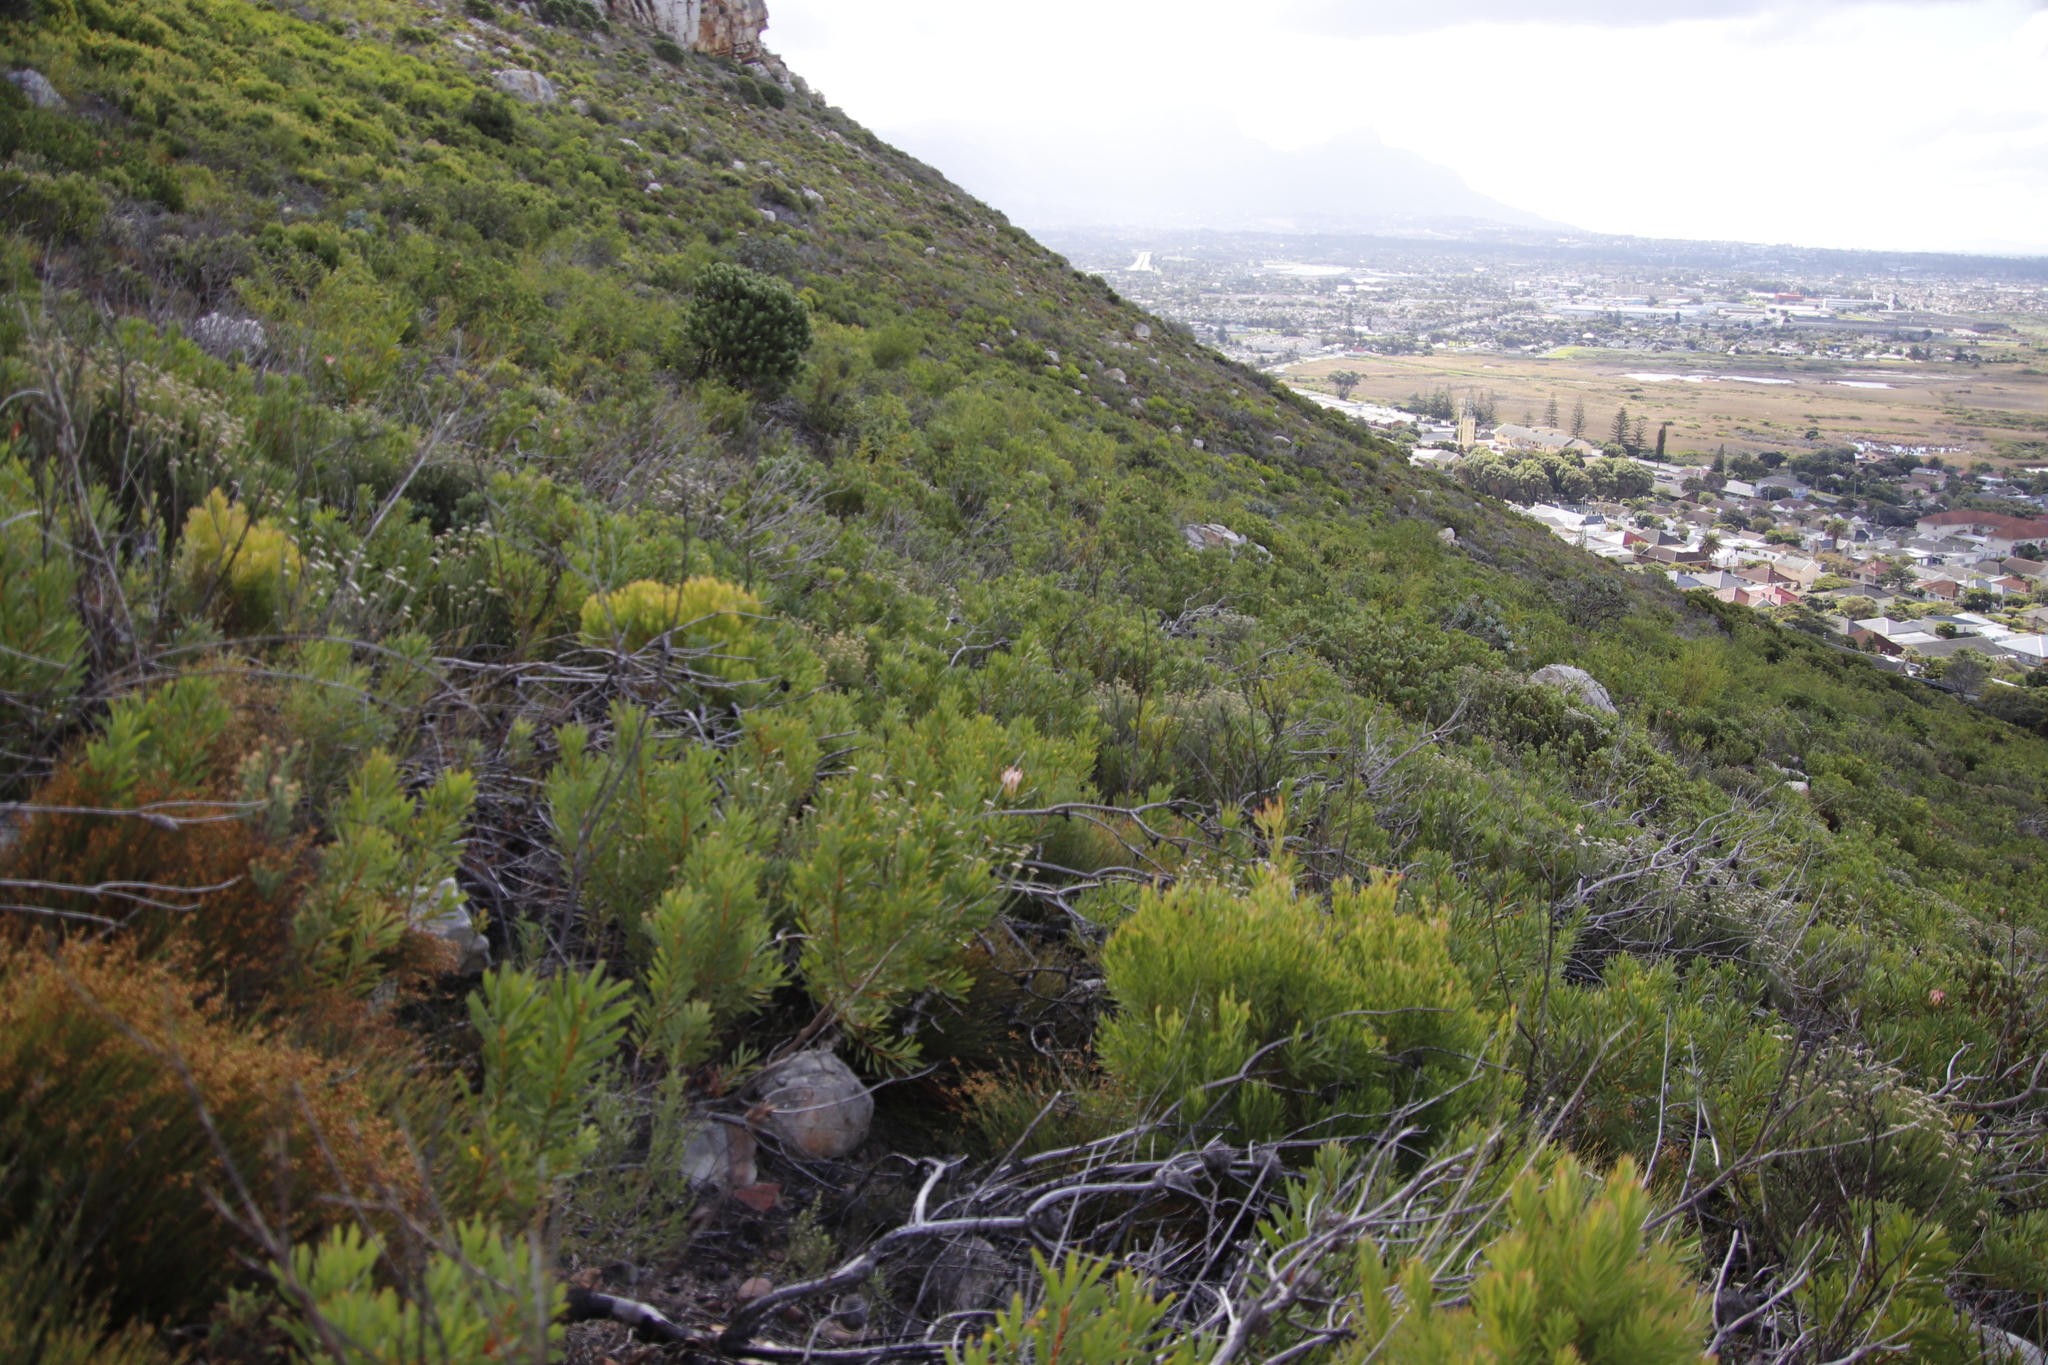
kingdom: Plantae
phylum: Tracheophyta
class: Magnoliopsida
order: Proteales
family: Proteaceae
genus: Leucadendron
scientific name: Leucadendron xanthoconus
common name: Sickle-leaf conebush
